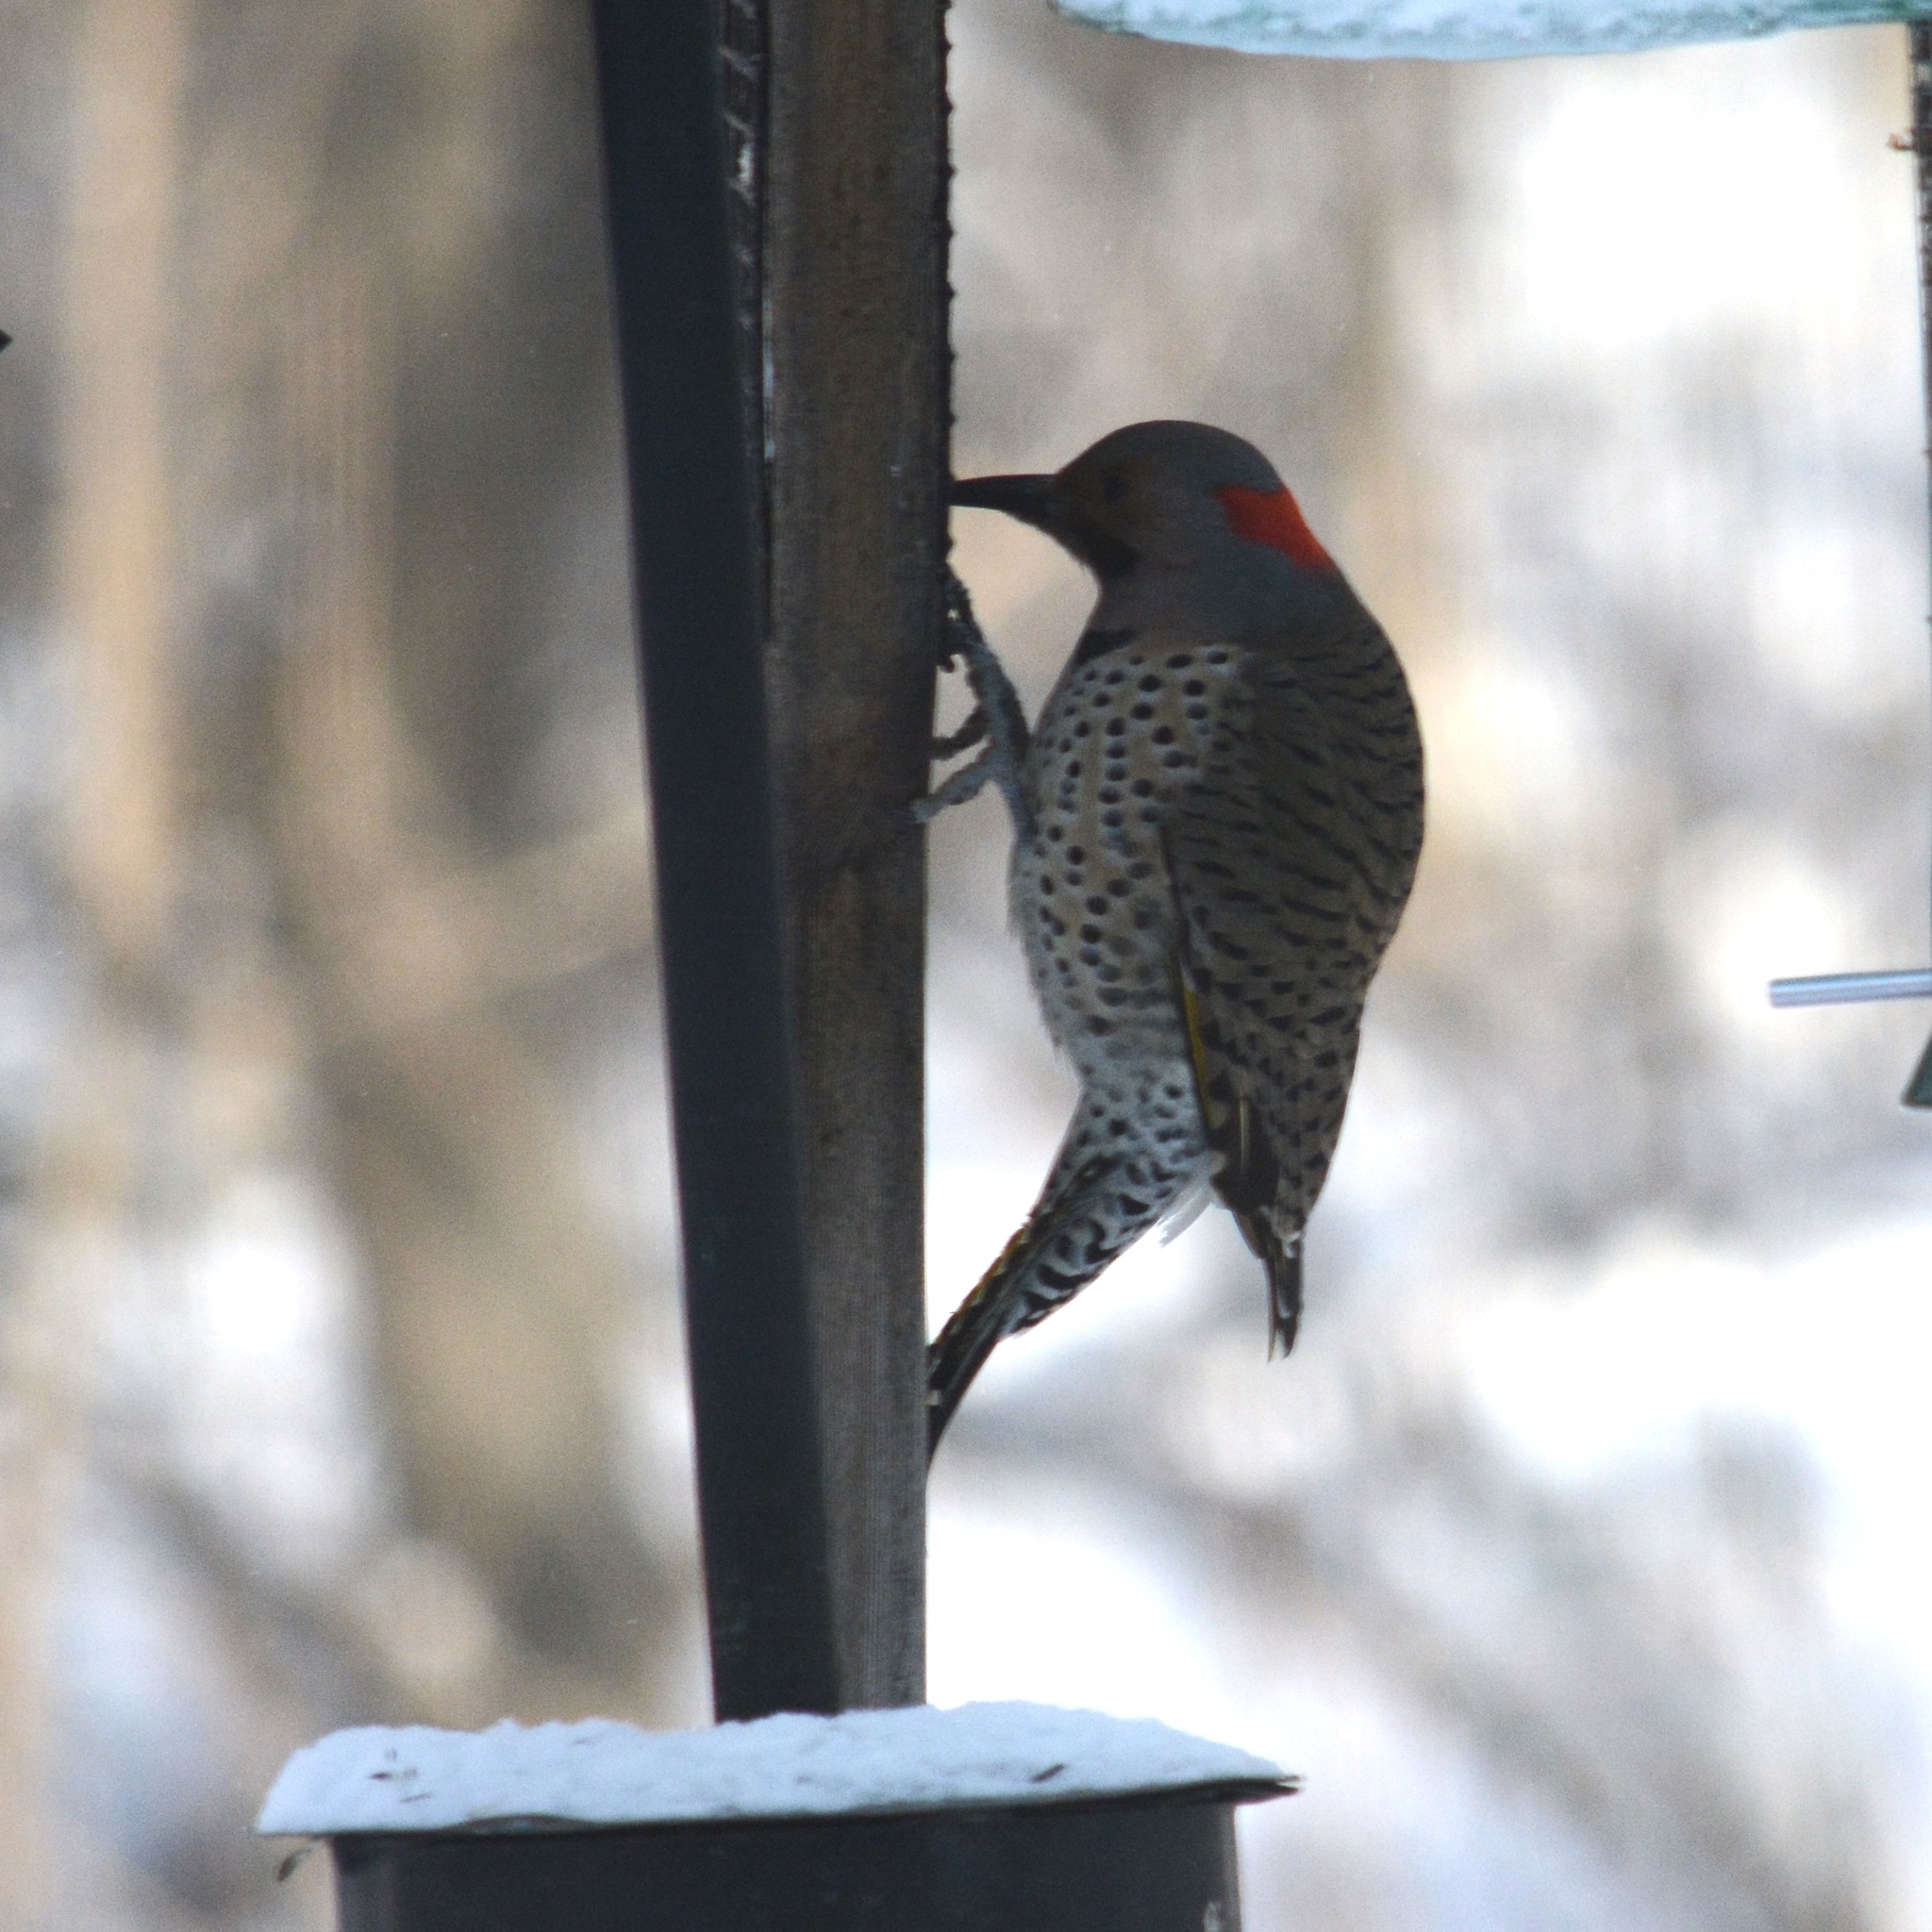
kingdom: Animalia
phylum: Chordata
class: Aves
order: Piciformes
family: Picidae
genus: Colaptes
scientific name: Colaptes auratus
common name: Northern flicker
